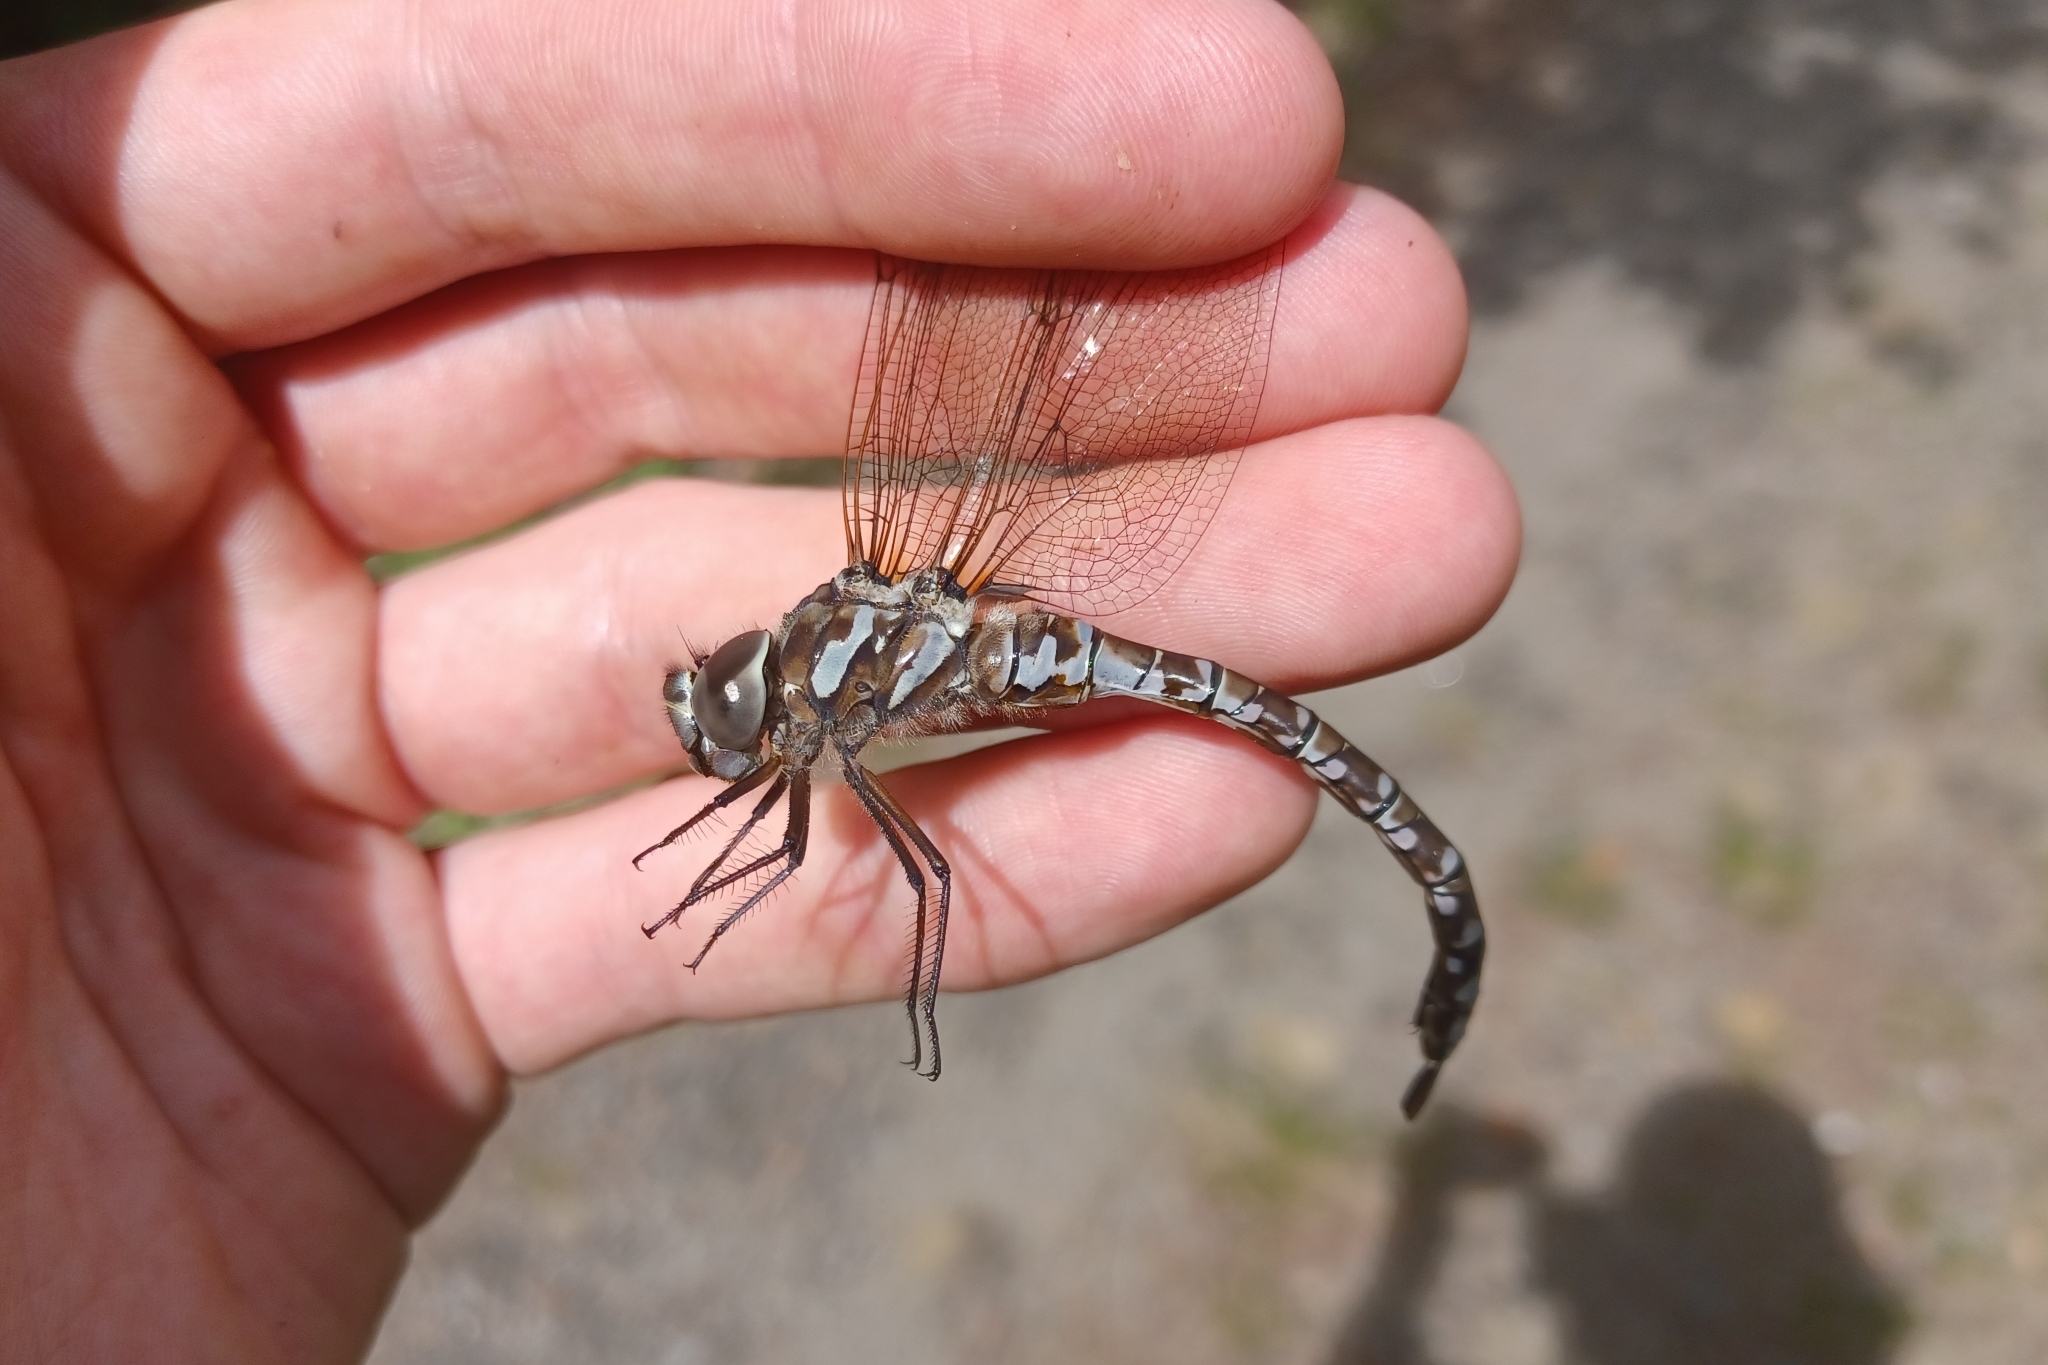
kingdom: Animalia
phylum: Arthropoda
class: Insecta
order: Odonata
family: Aeshnidae
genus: Aeshna
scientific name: Aeshna canadensis
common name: Canada darner
